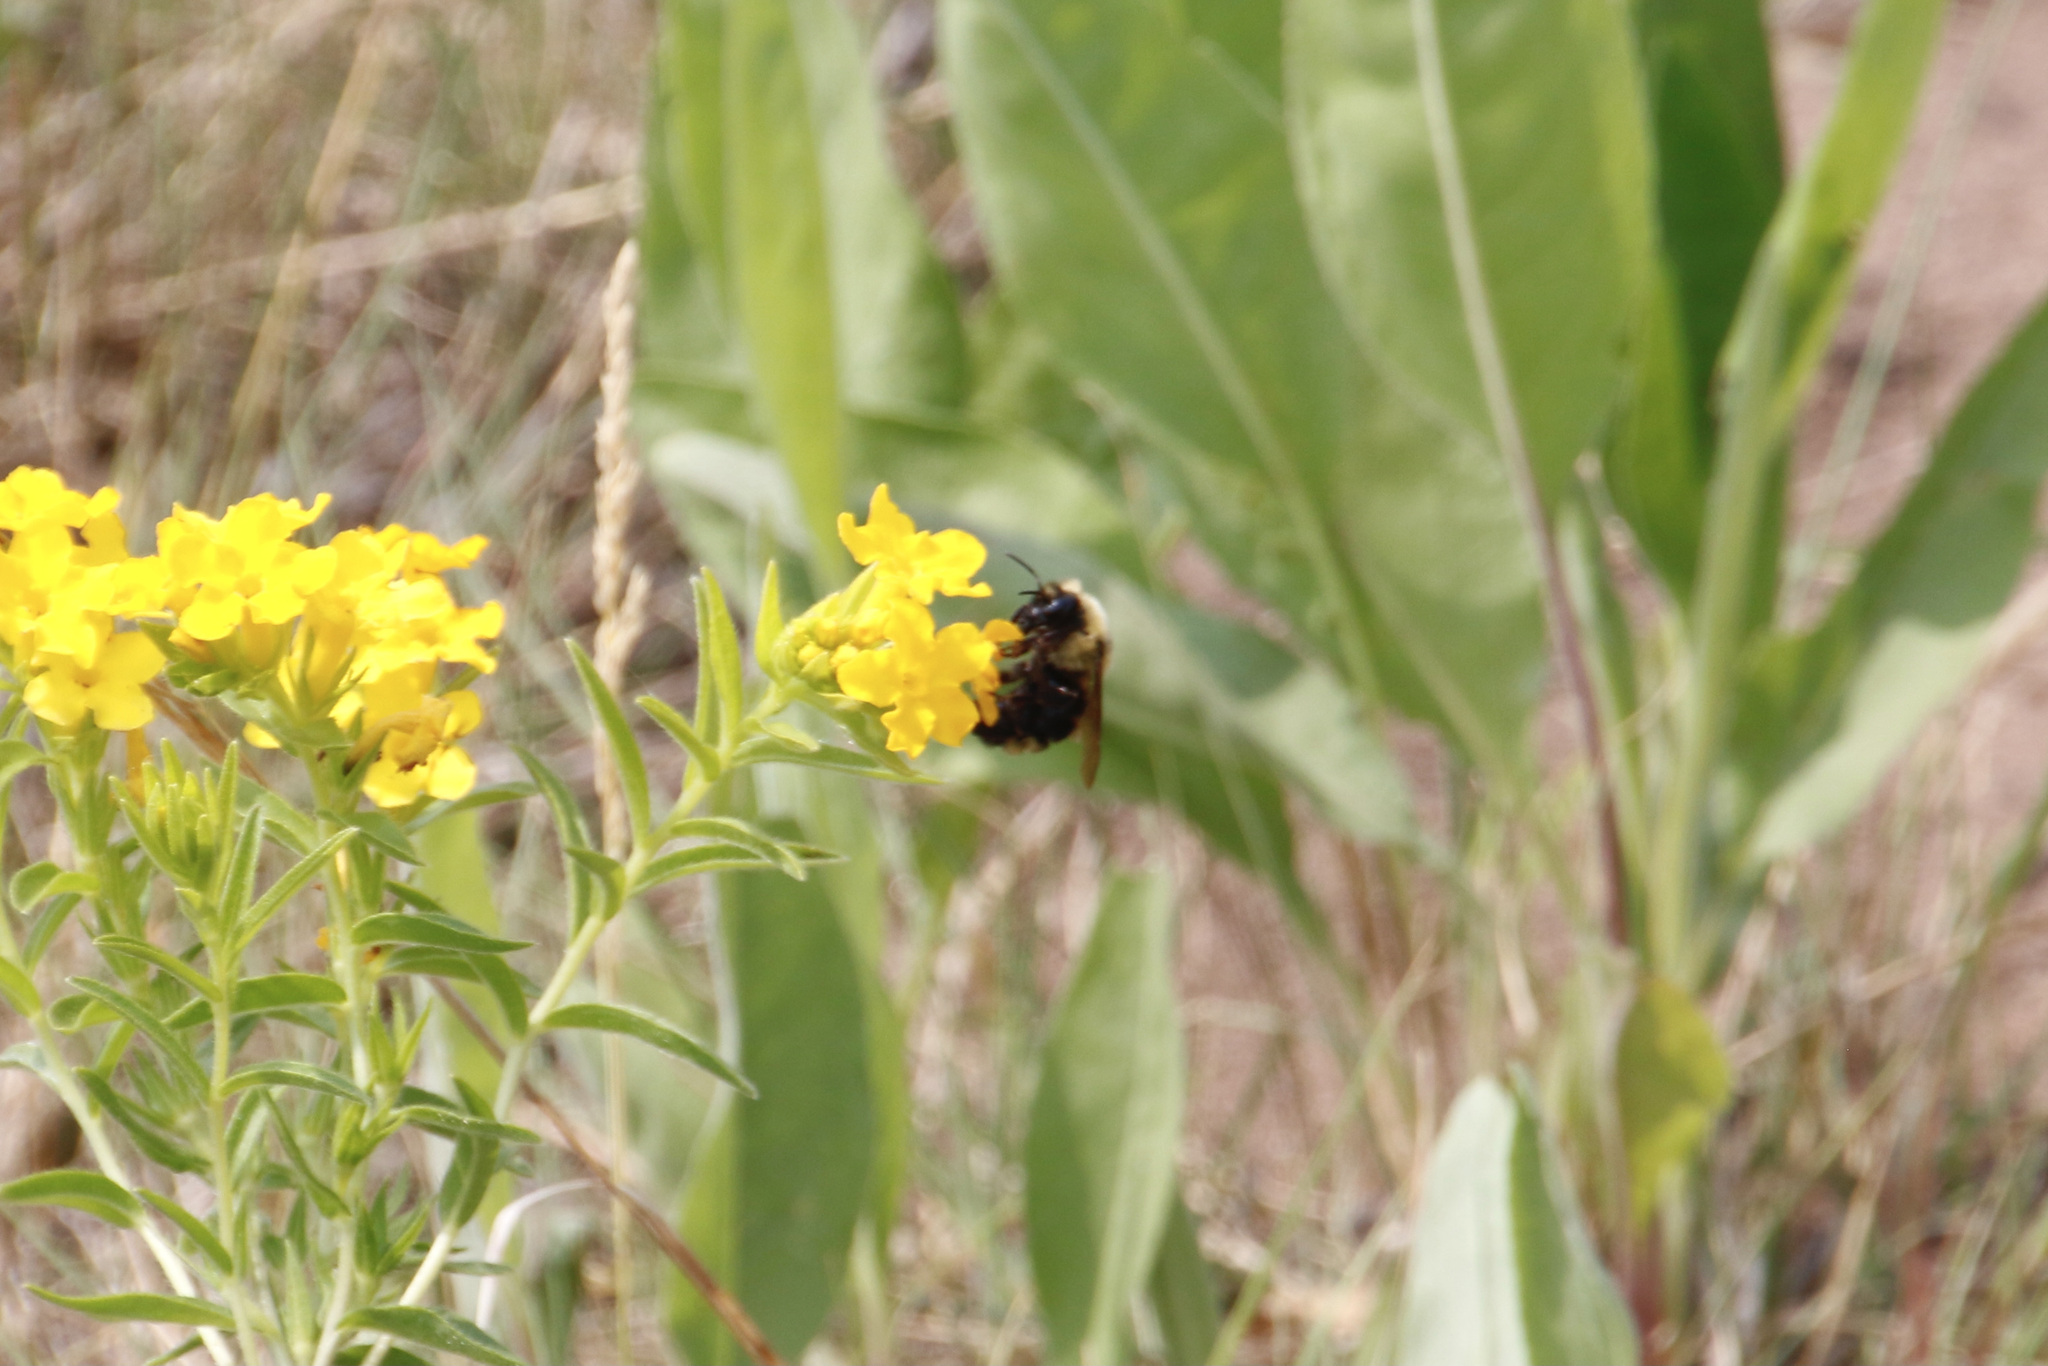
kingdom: Animalia
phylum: Arthropoda
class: Insecta
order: Hymenoptera
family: Apidae
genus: Bombus
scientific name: Bombus insularis
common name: Indiscriminate cuckoo bumble bee
